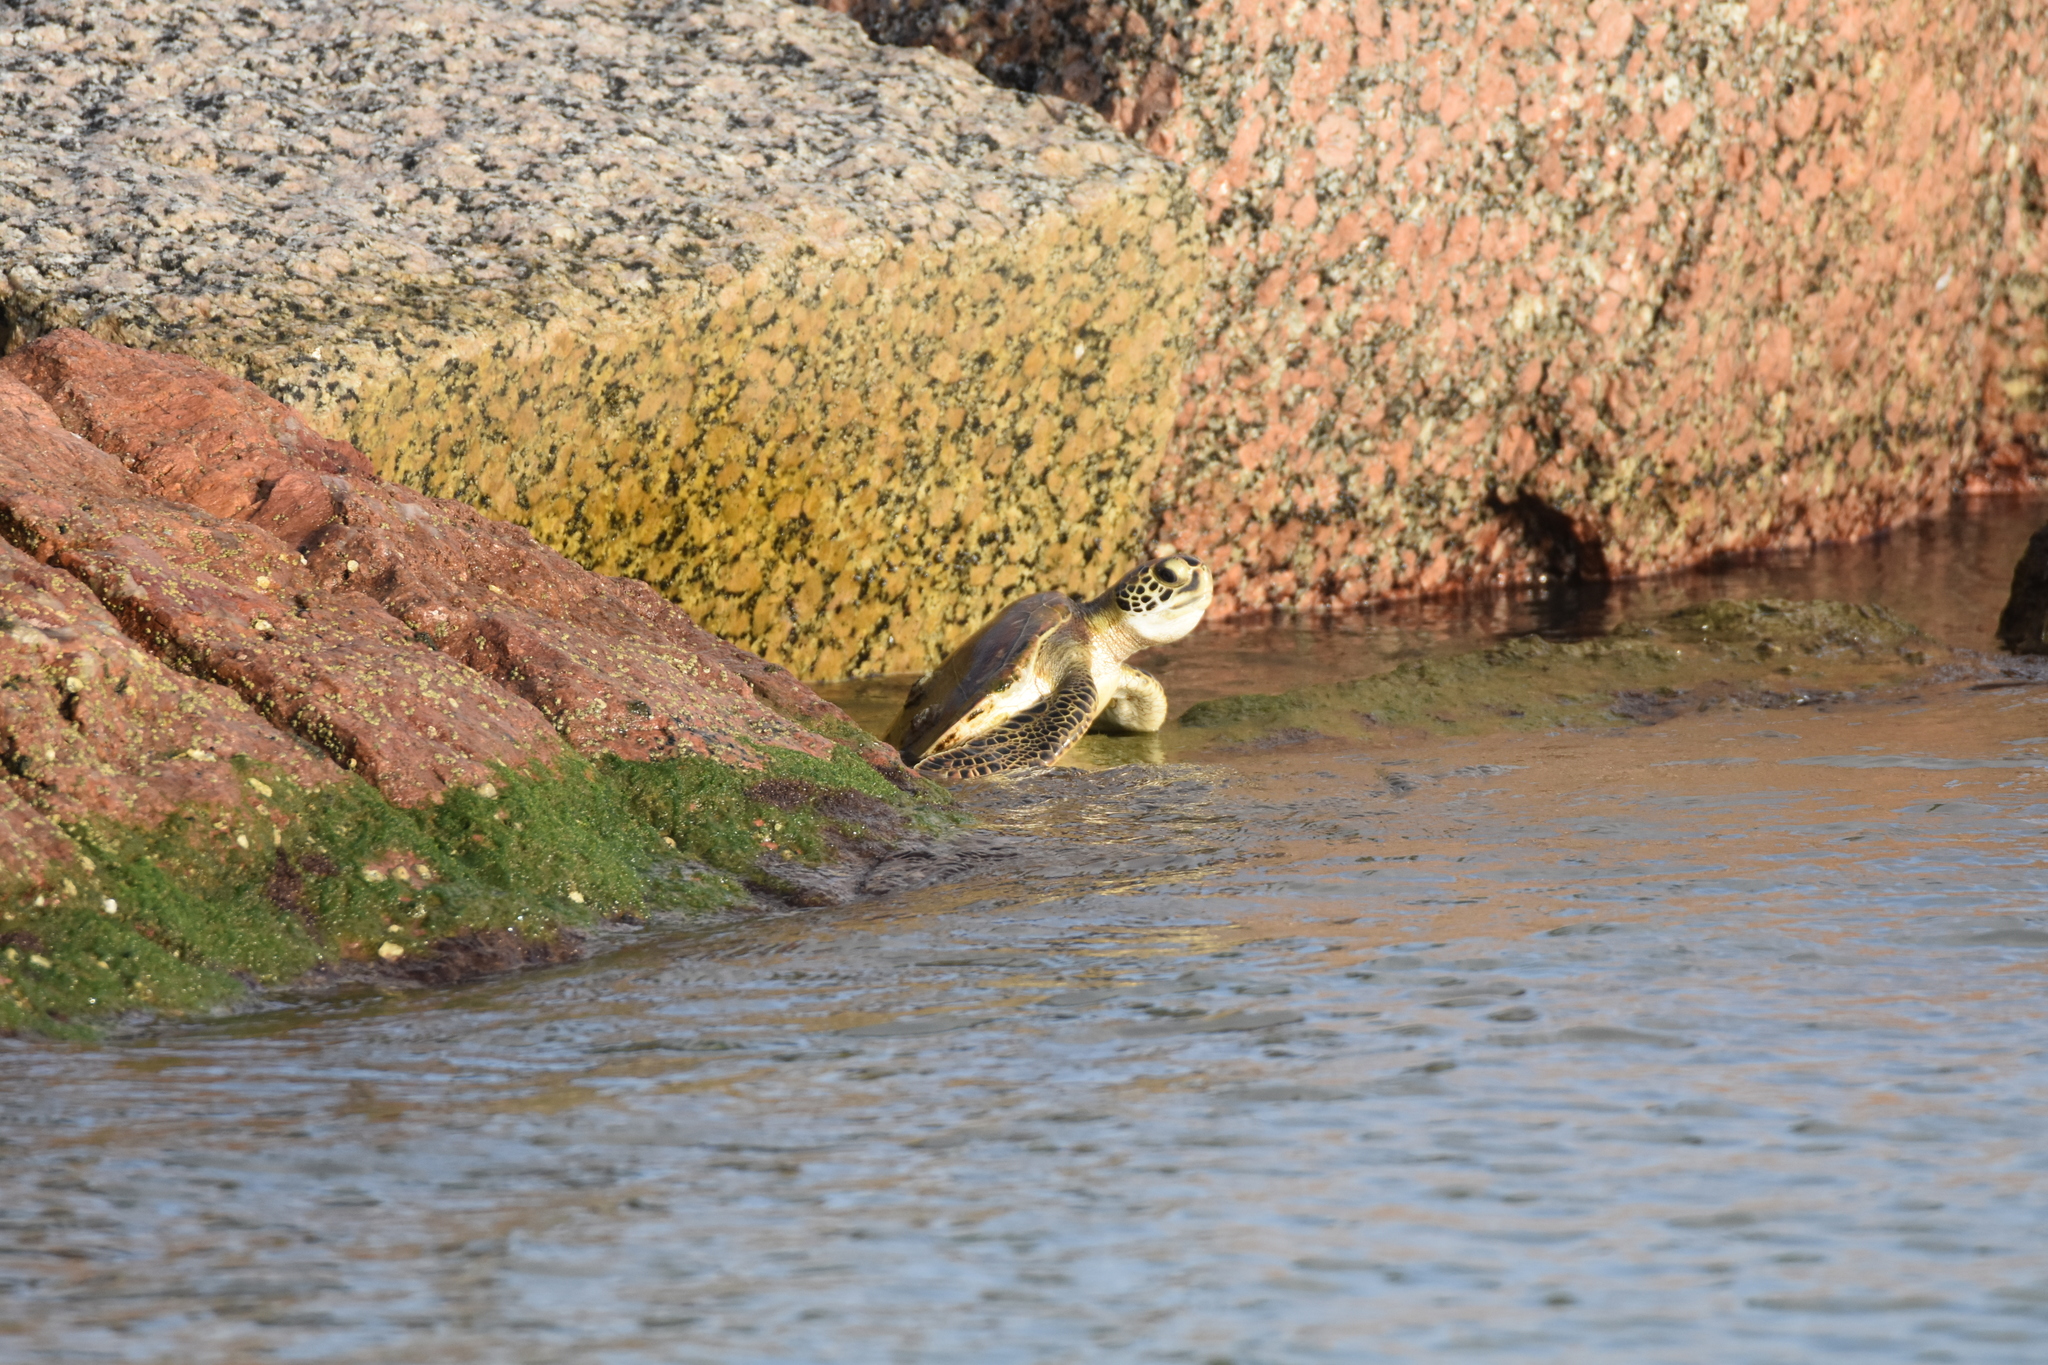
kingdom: Animalia
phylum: Chordata
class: Testudines
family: Cheloniidae
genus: Chelonia
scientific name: Chelonia mydas
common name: Green turtle
